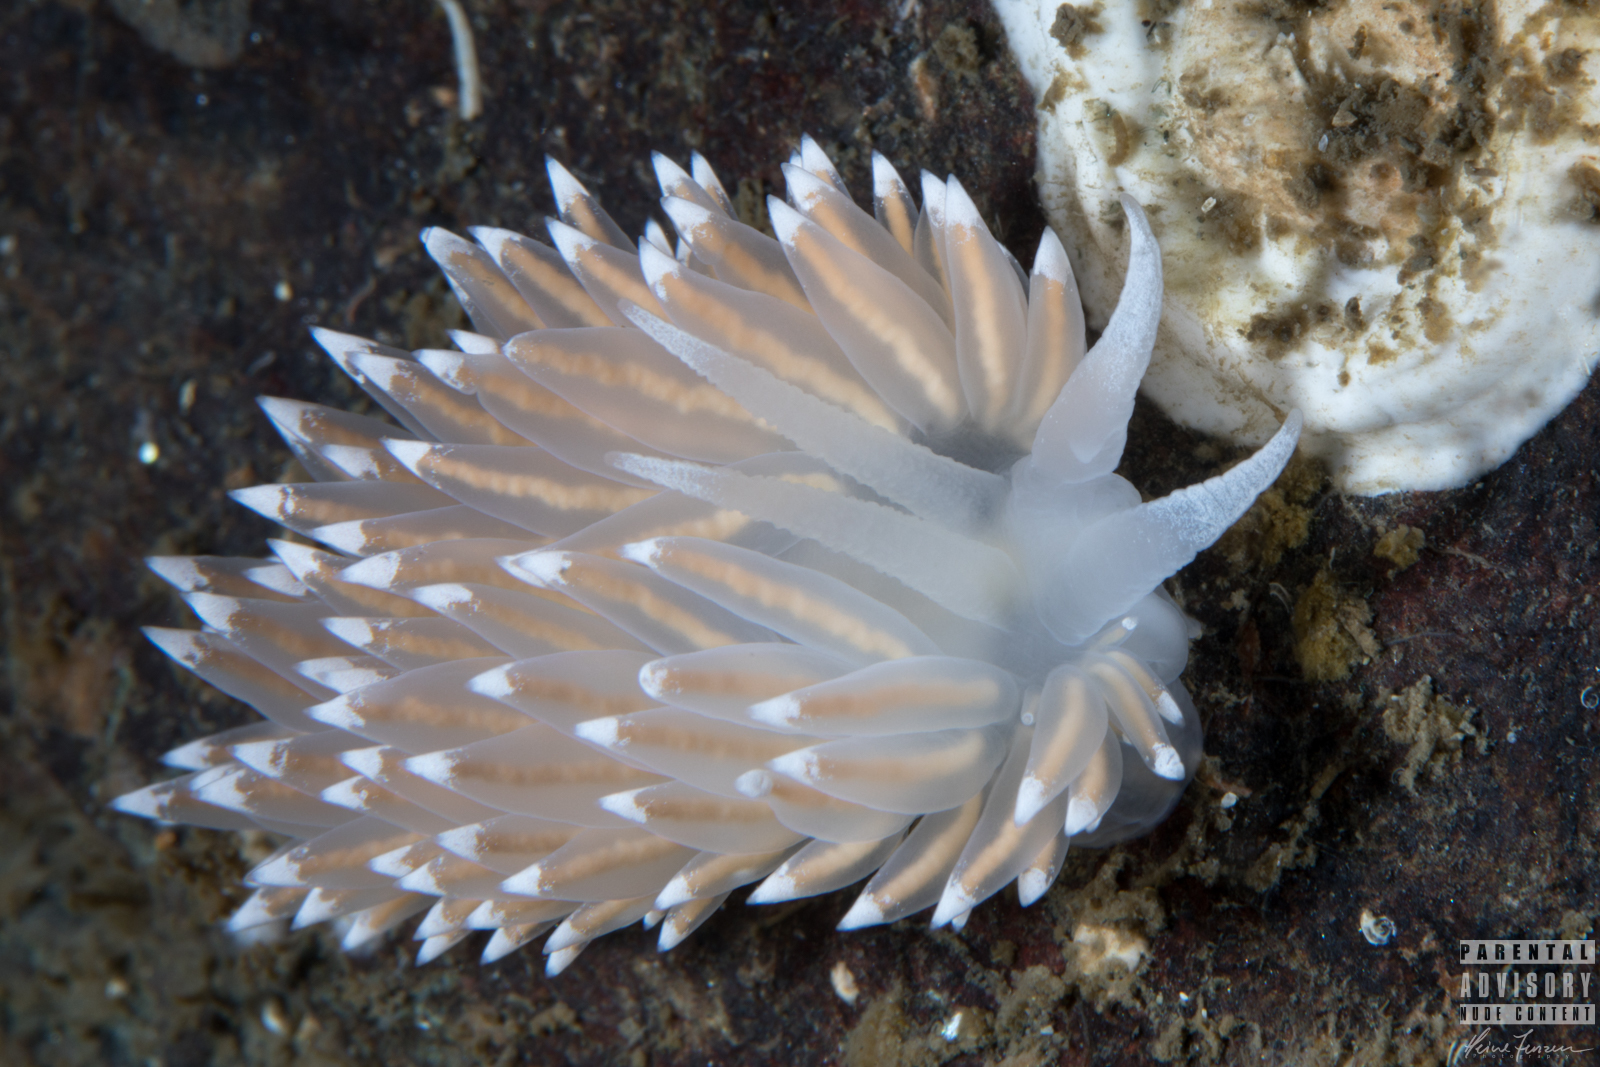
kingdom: Animalia
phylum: Mollusca
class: Gastropoda
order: Nudibranchia
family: Coryphellidae
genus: Coryphella
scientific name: Coryphella nobilis
